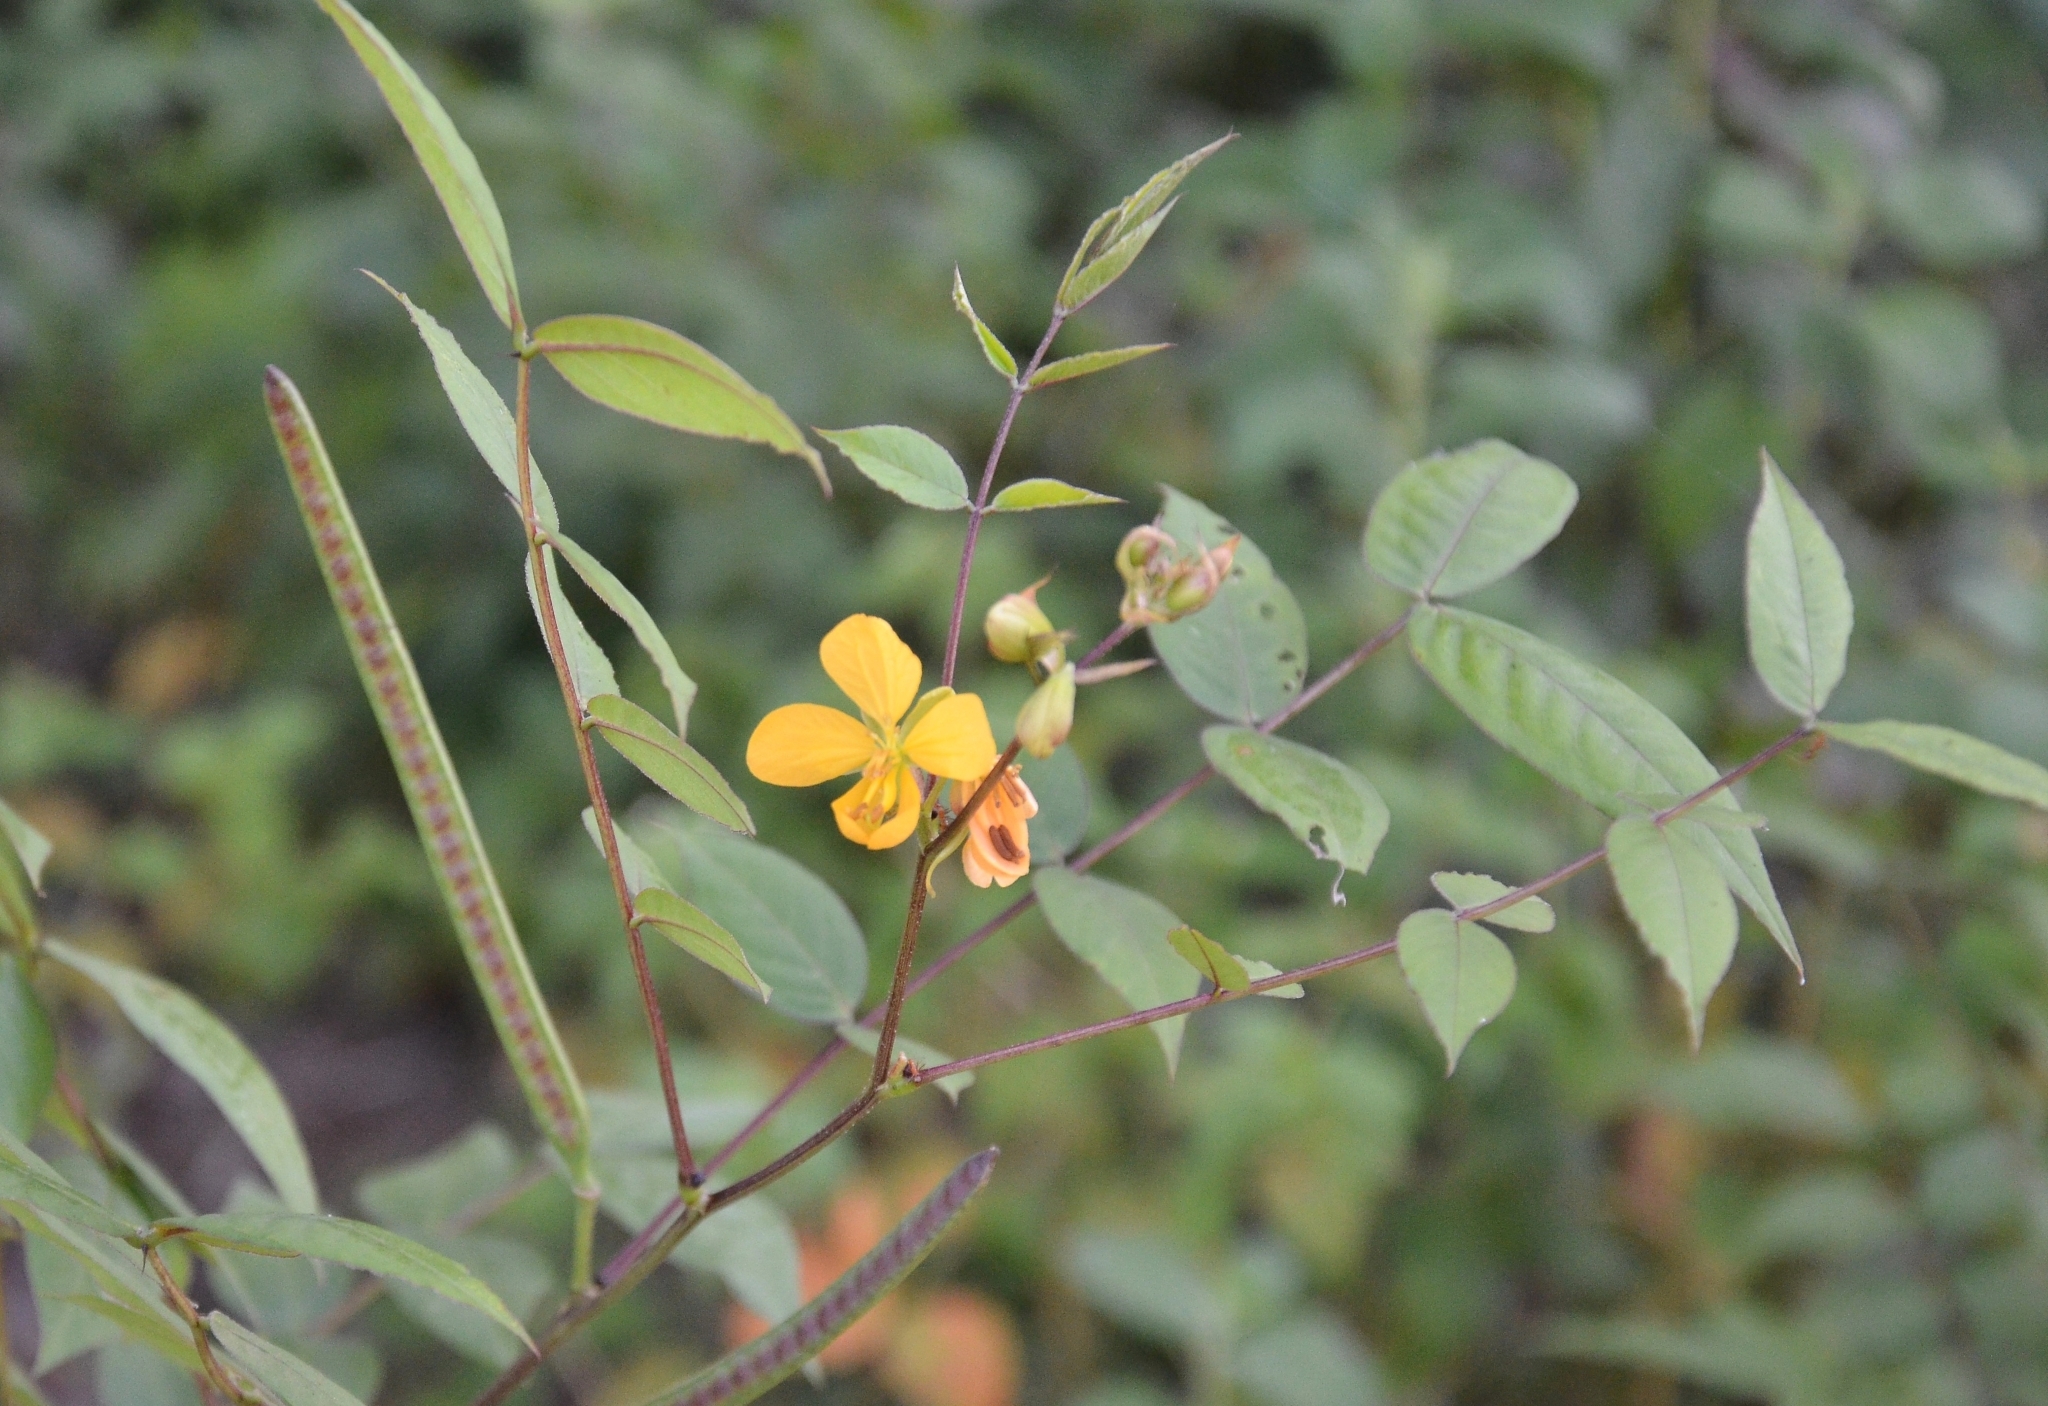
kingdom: Plantae
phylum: Tracheophyta
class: Magnoliopsida
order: Fabales
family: Fabaceae
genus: Senna
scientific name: Senna occidentalis
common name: Septicweed
